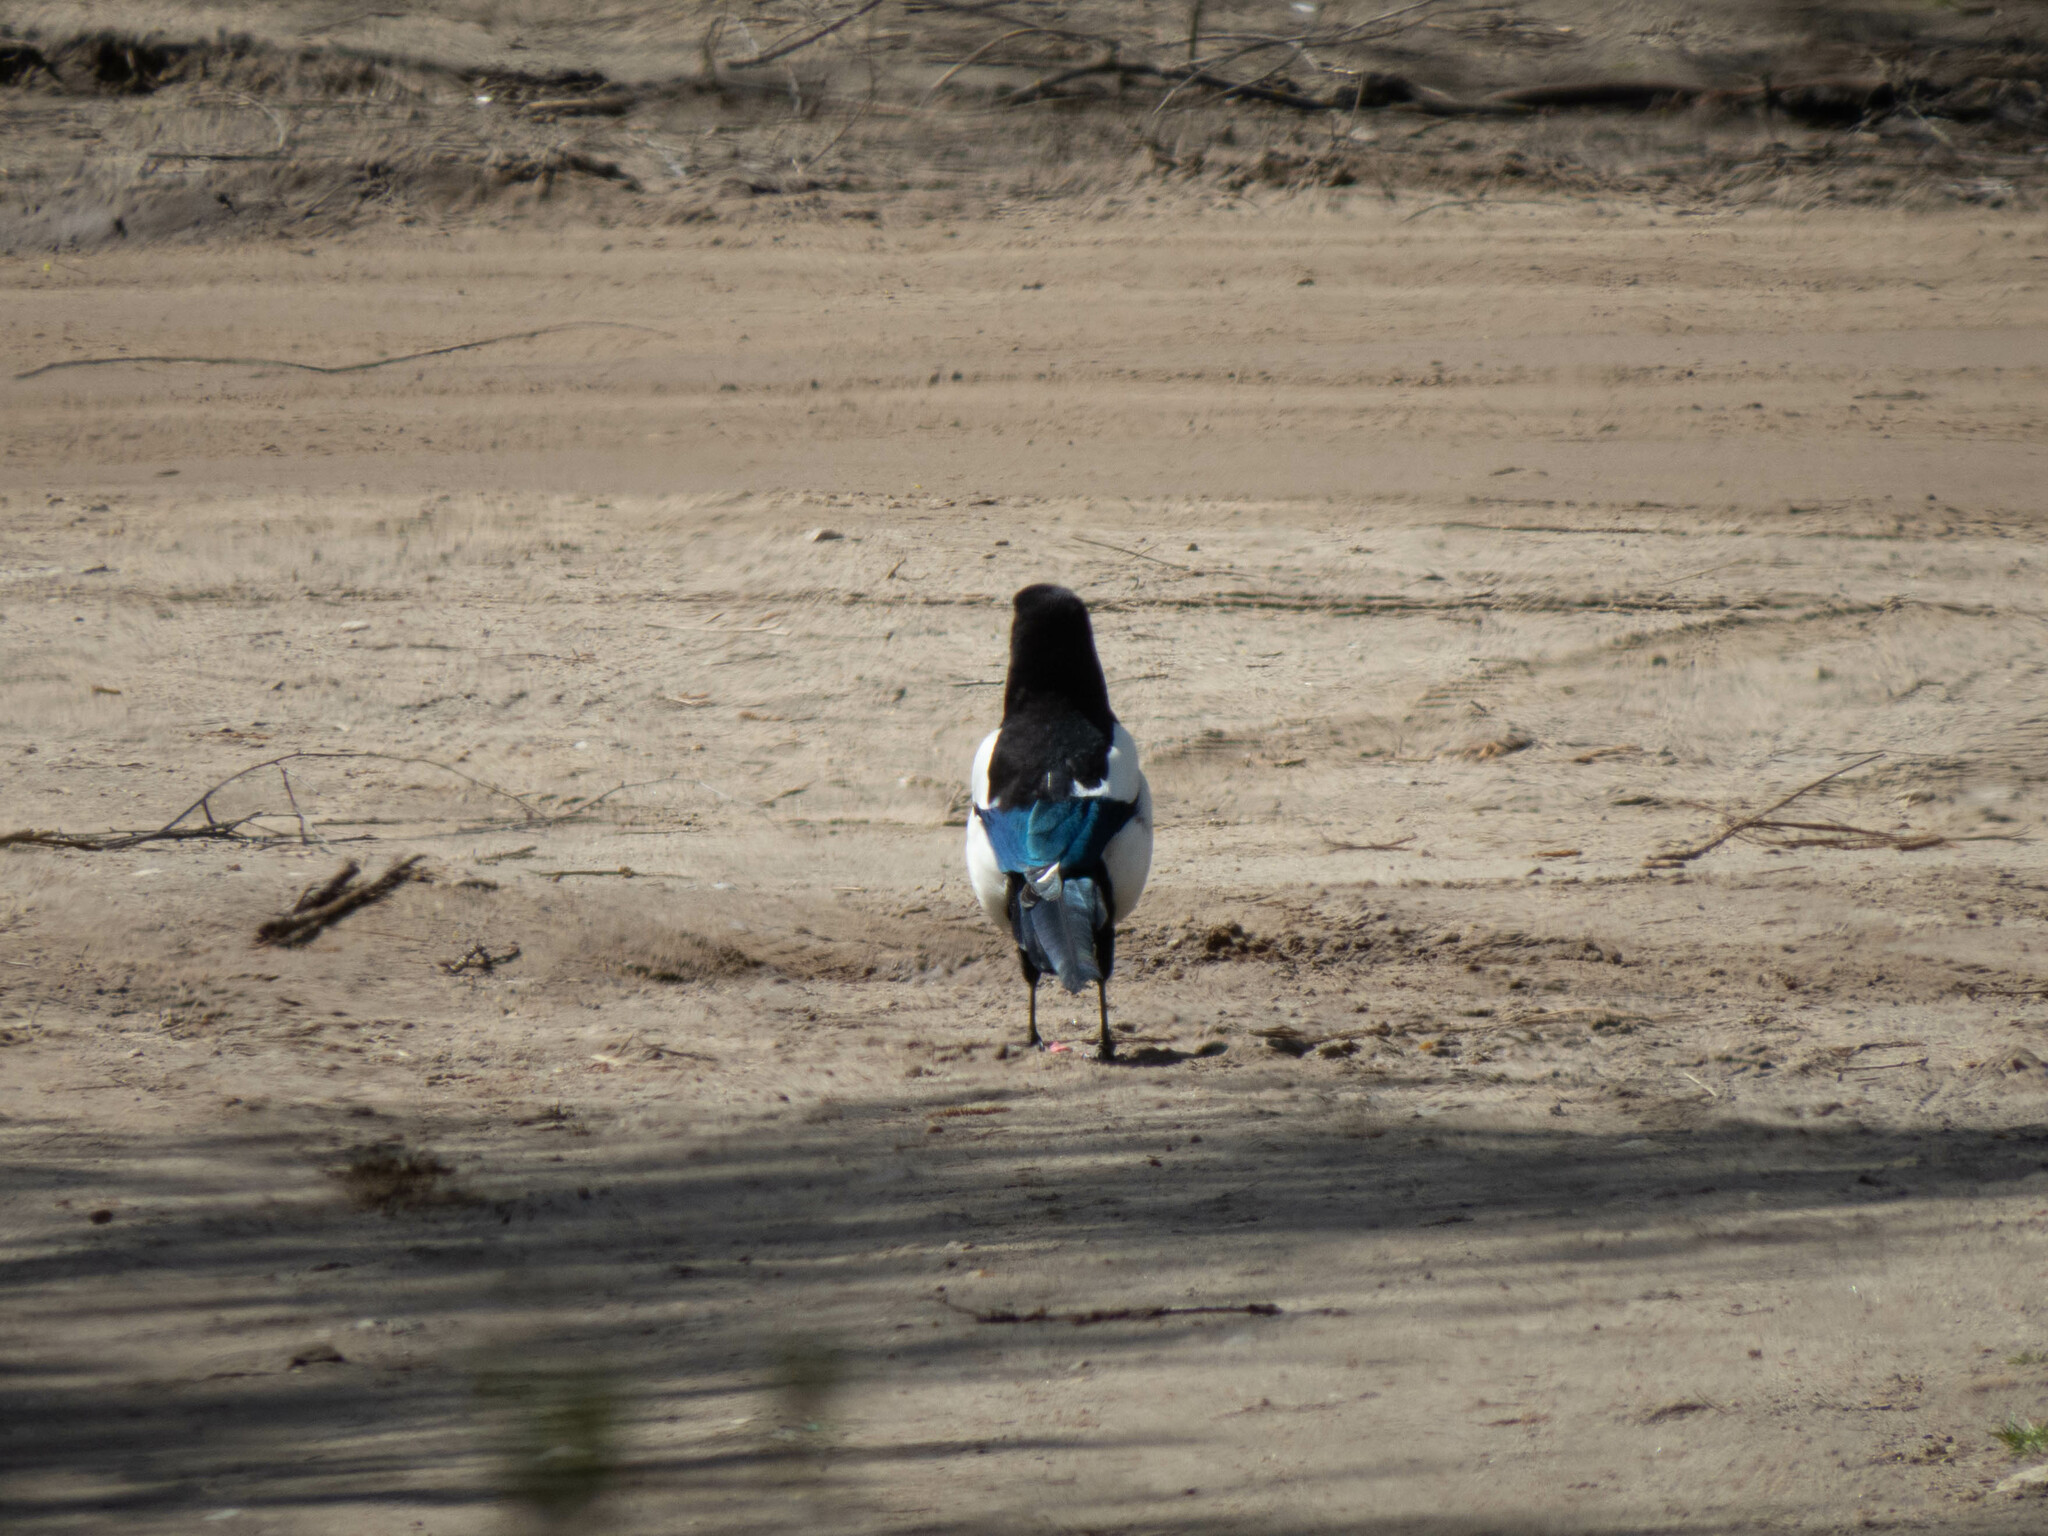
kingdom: Animalia
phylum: Chordata
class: Aves
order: Passeriformes
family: Corvidae
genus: Pica
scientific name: Pica pica
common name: Eurasian magpie
